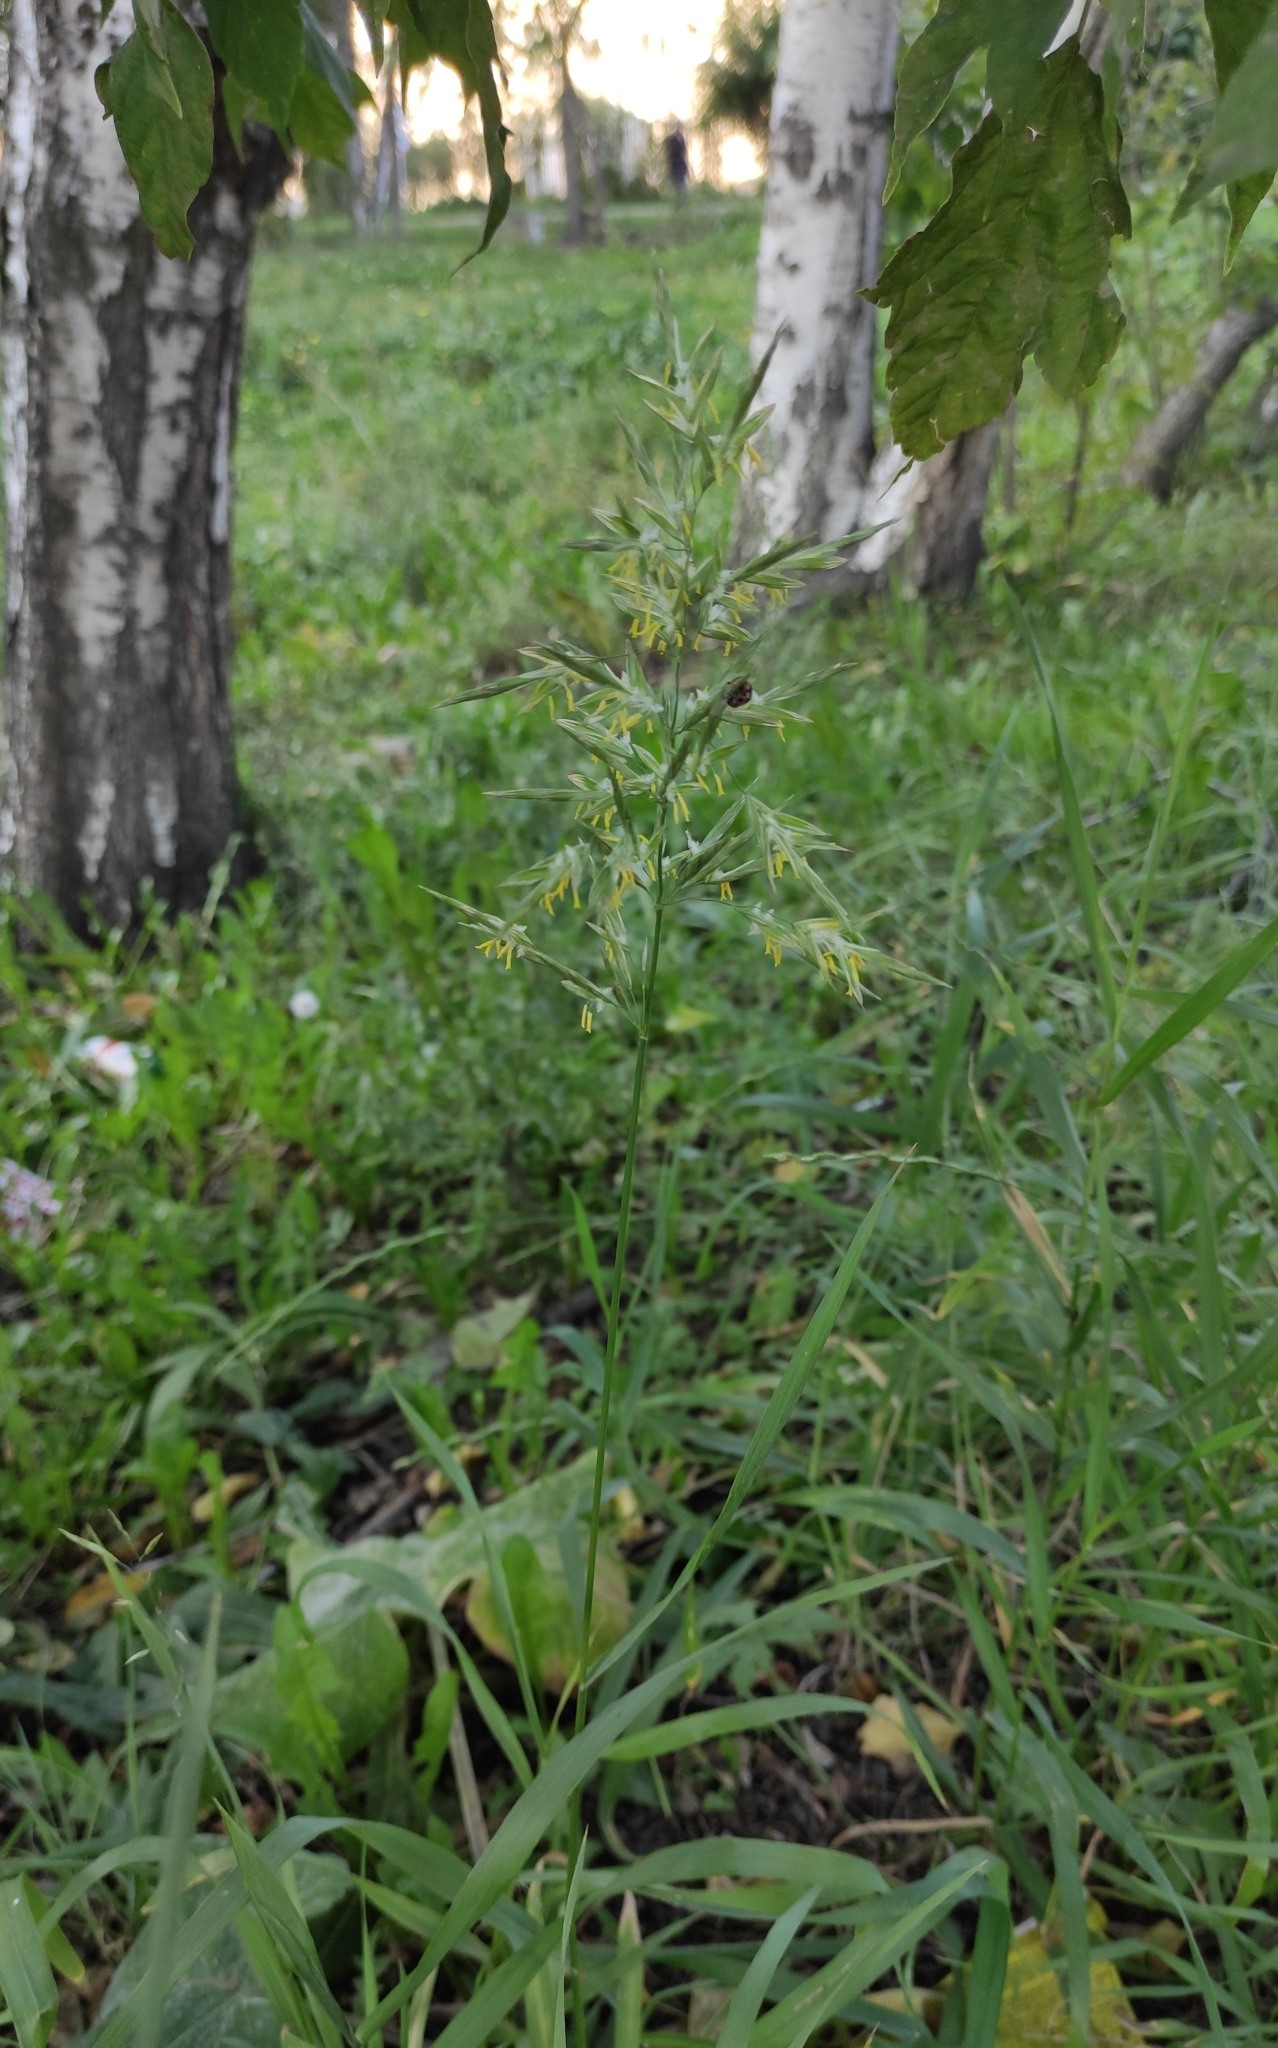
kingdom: Plantae
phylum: Tracheophyta
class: Liliopsida
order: Poales
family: Poaceae
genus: Bromus
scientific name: Bromus inermis
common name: Smooth brome
